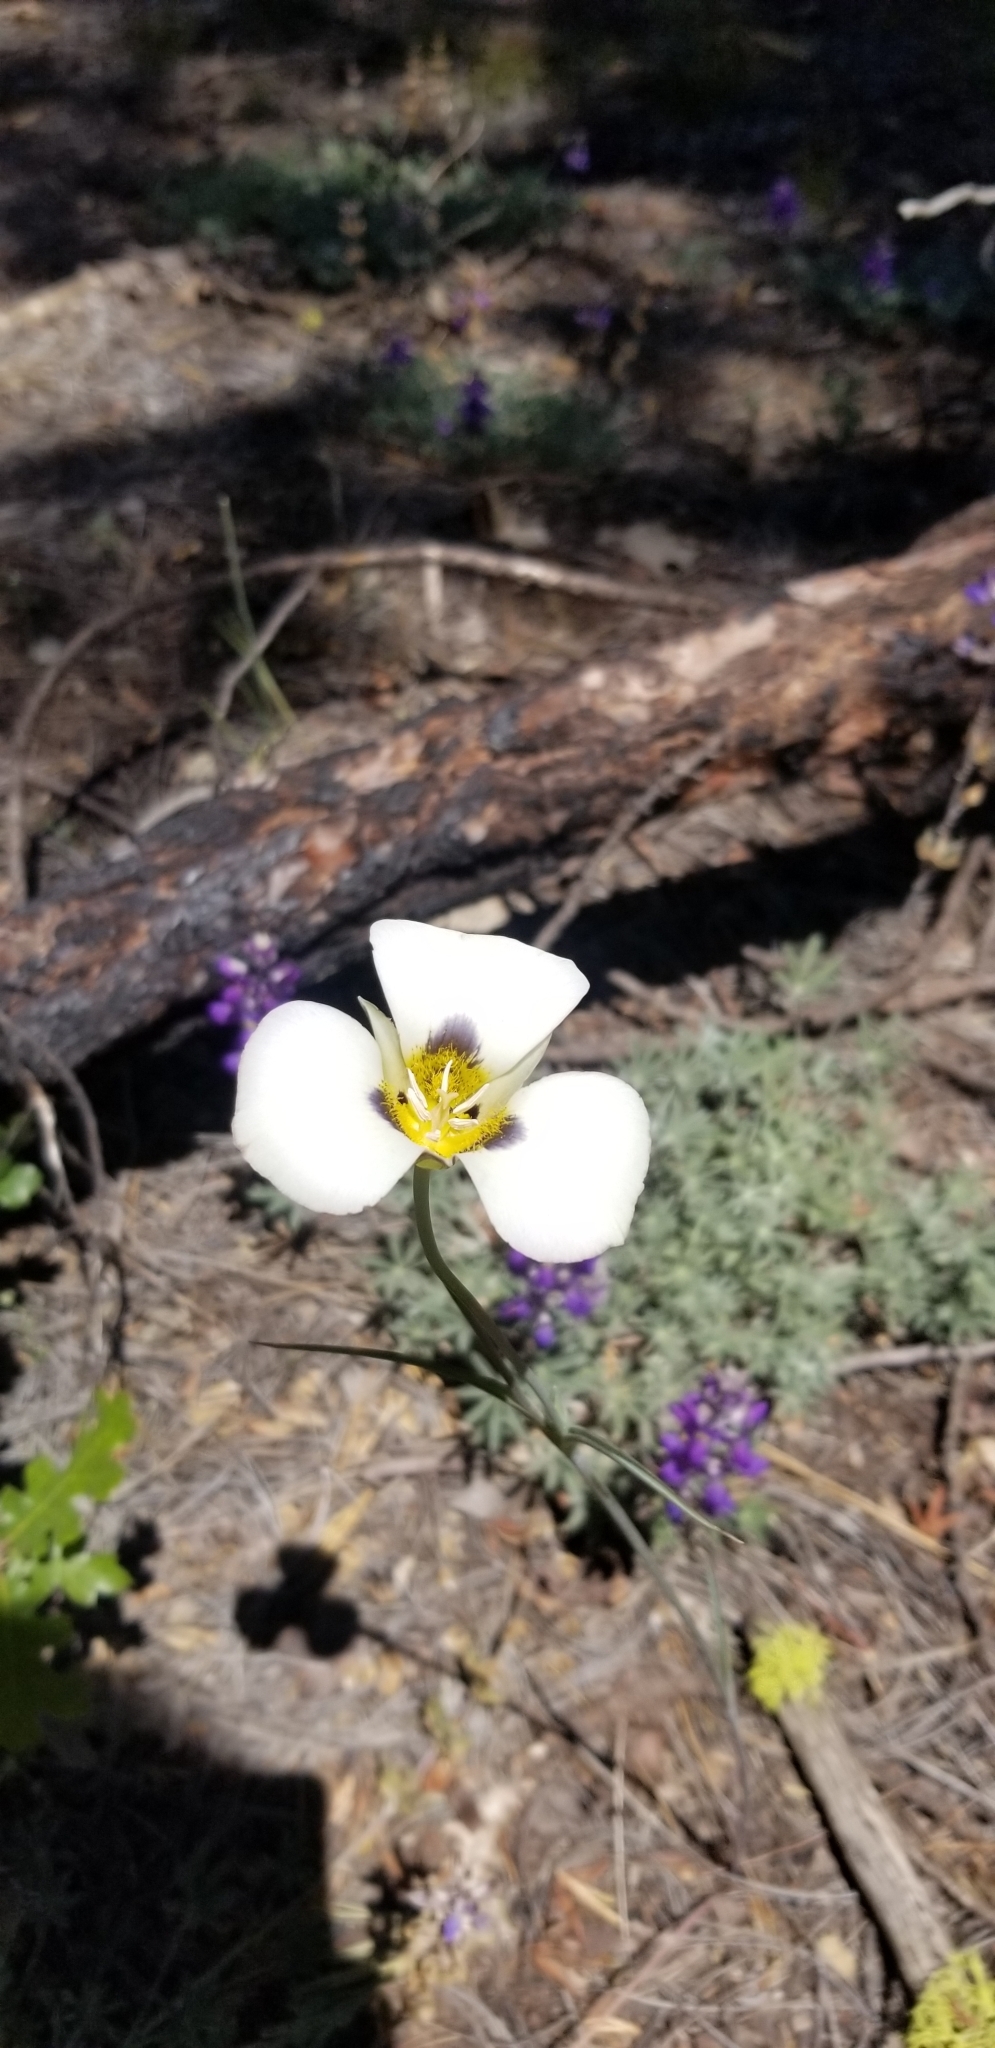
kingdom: Plantae
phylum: Tracheophyta
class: Liliopsida
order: Liliales
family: Liliaceae
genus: Calochortus
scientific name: Calochortus leichtlinii
